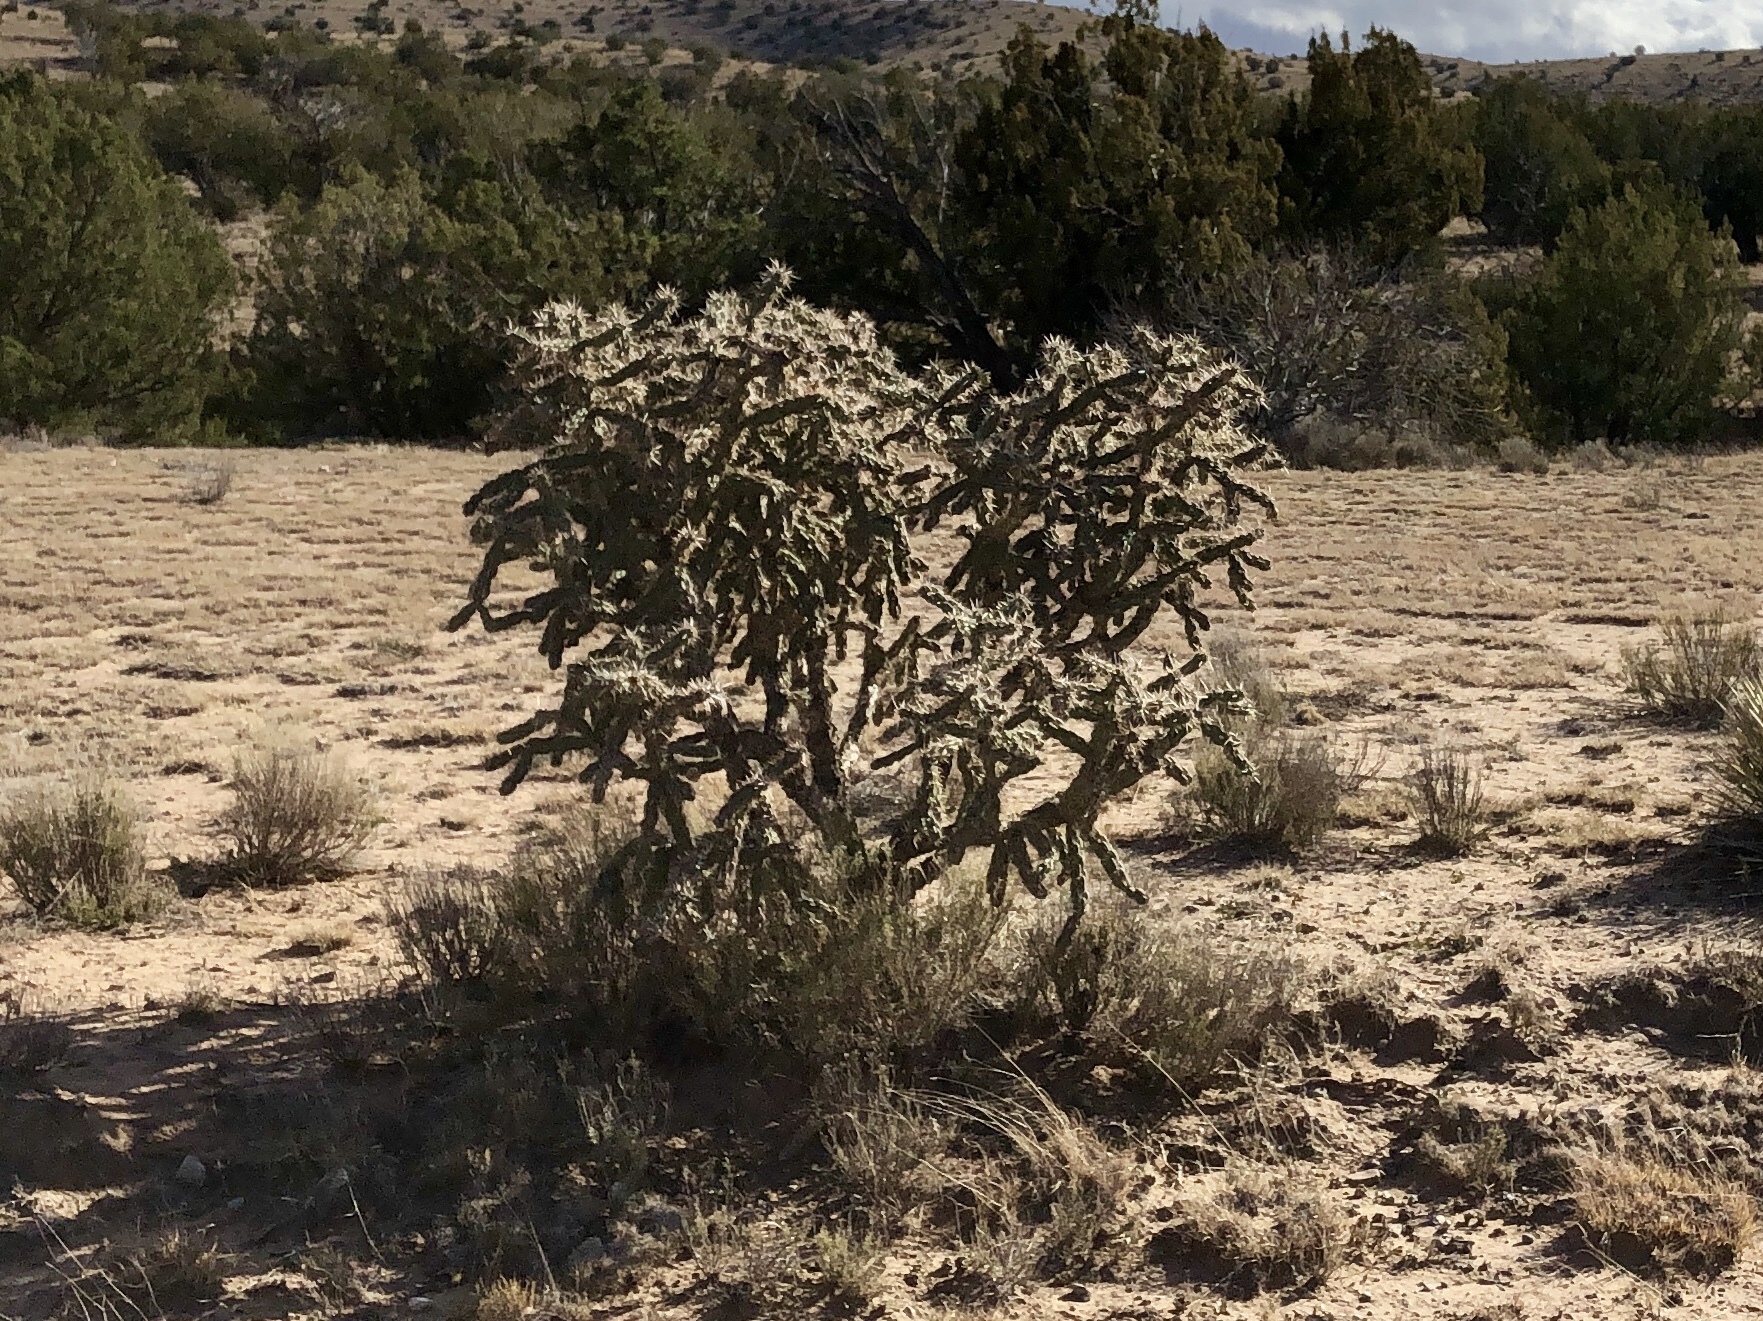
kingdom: Plantae
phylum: Tracheophyta
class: Magnoliopsida
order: Caryophyllales
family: Cactaceae
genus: Cylindropuntia
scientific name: Cylindropuntia imbricata
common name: Candelabrum cactus
